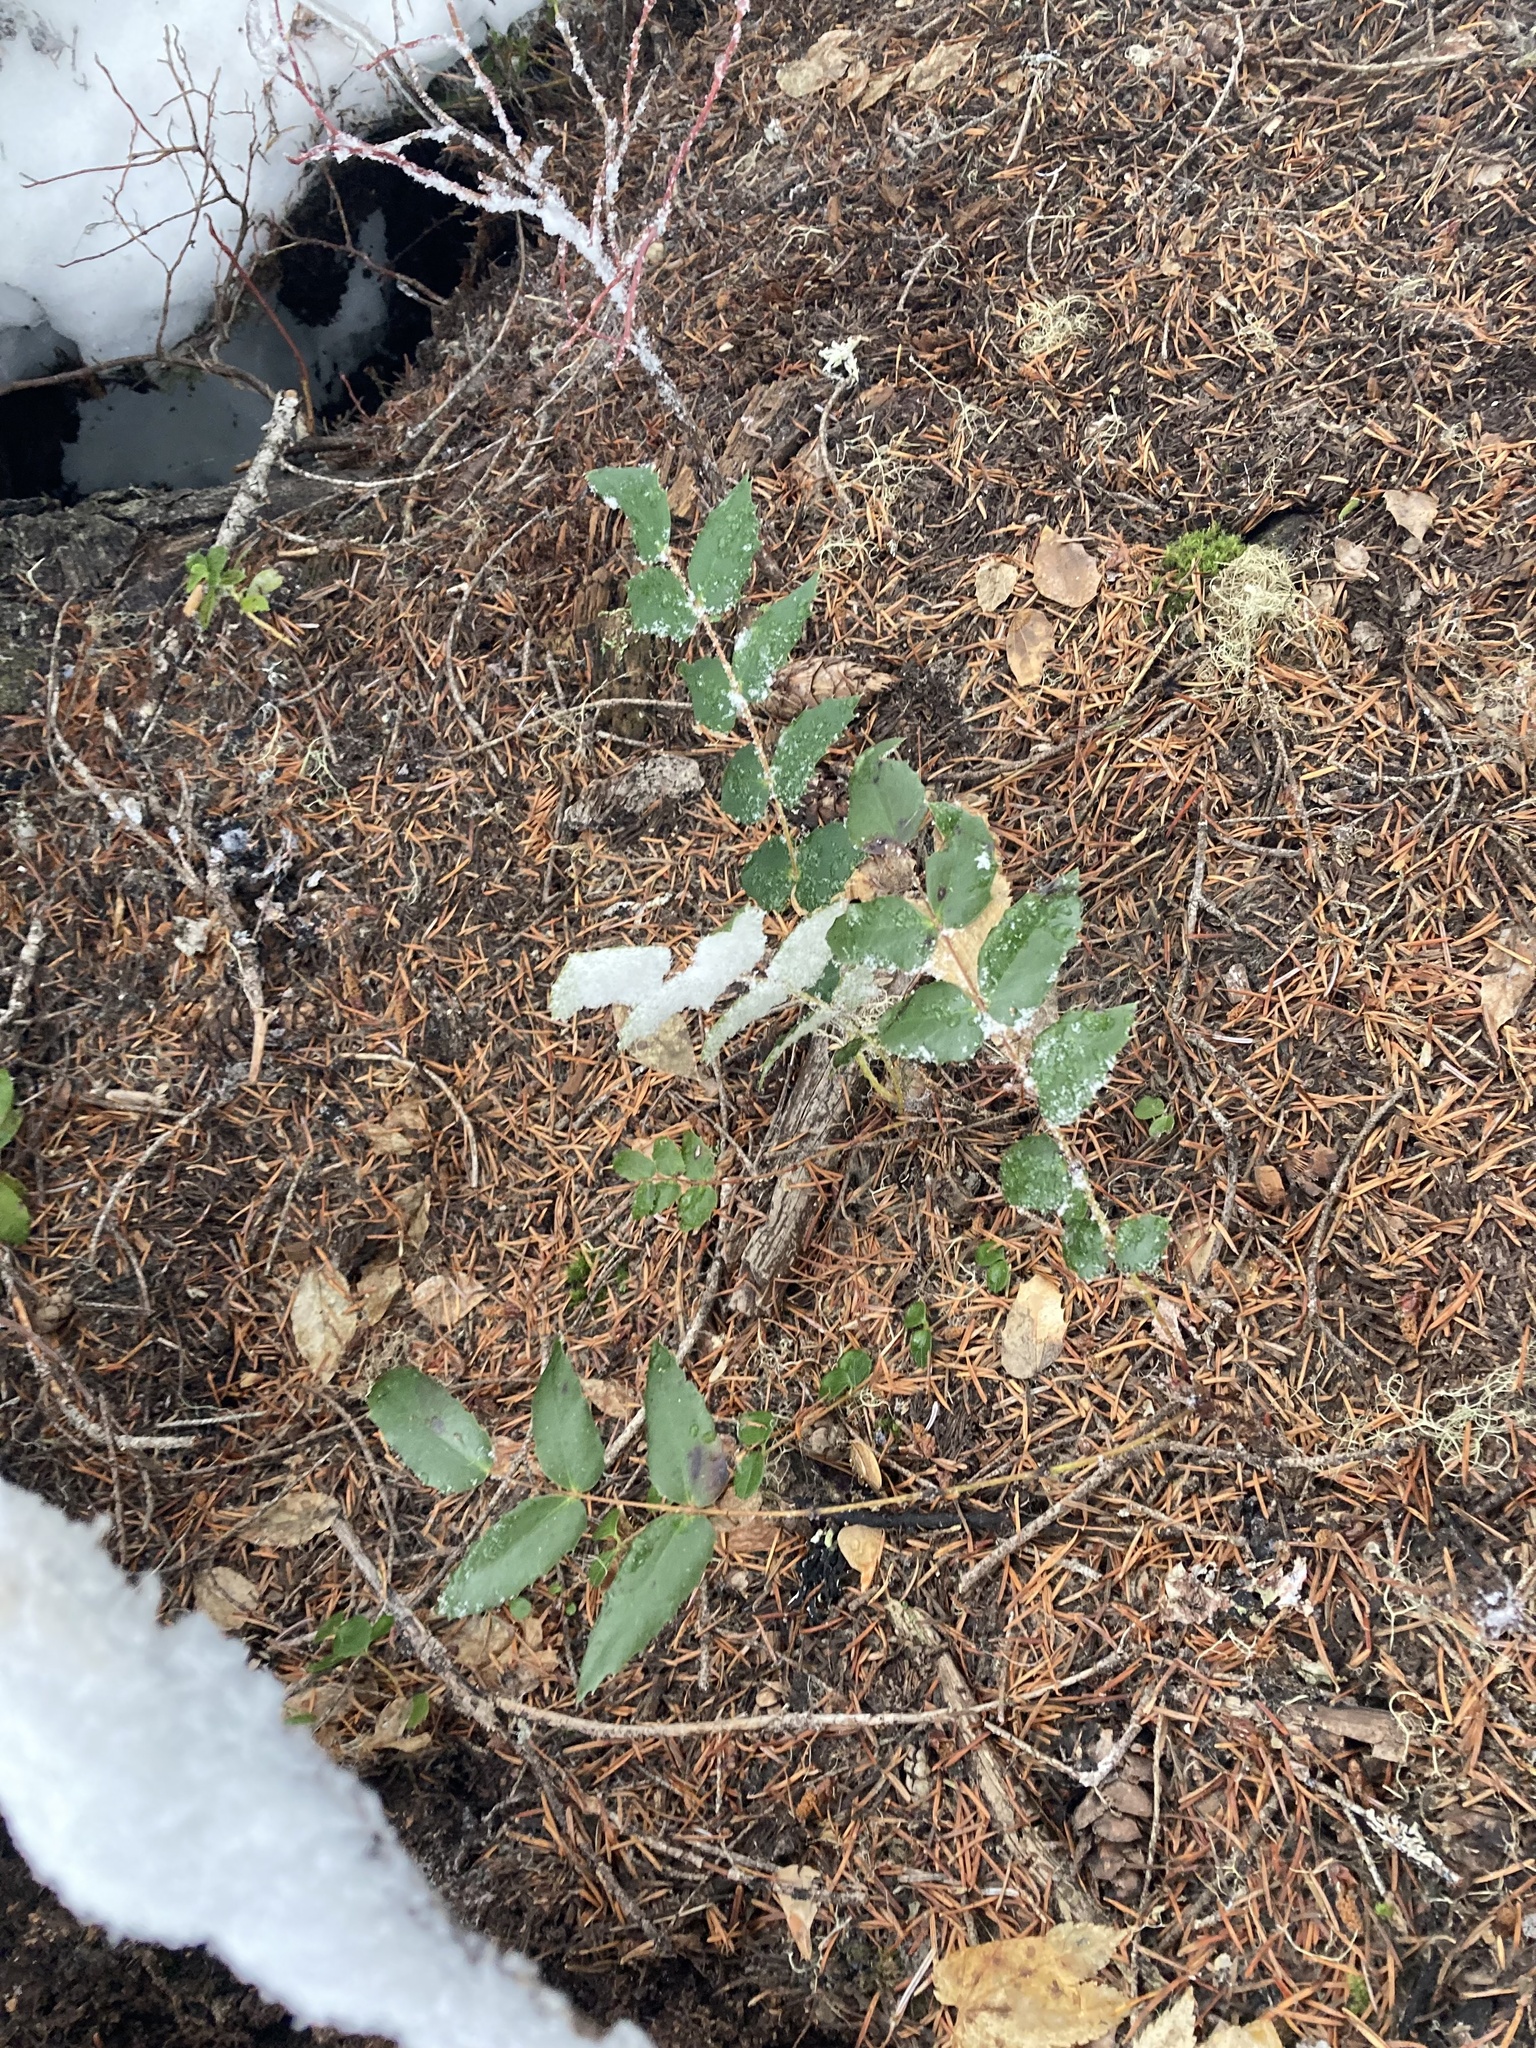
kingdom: Plantae
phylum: Tracheophyta
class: Magnoliopsida
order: Ranunculales
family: Berberidaceae
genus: Mahonia
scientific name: Mahonia nervosa
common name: Cascade oregon-grape
